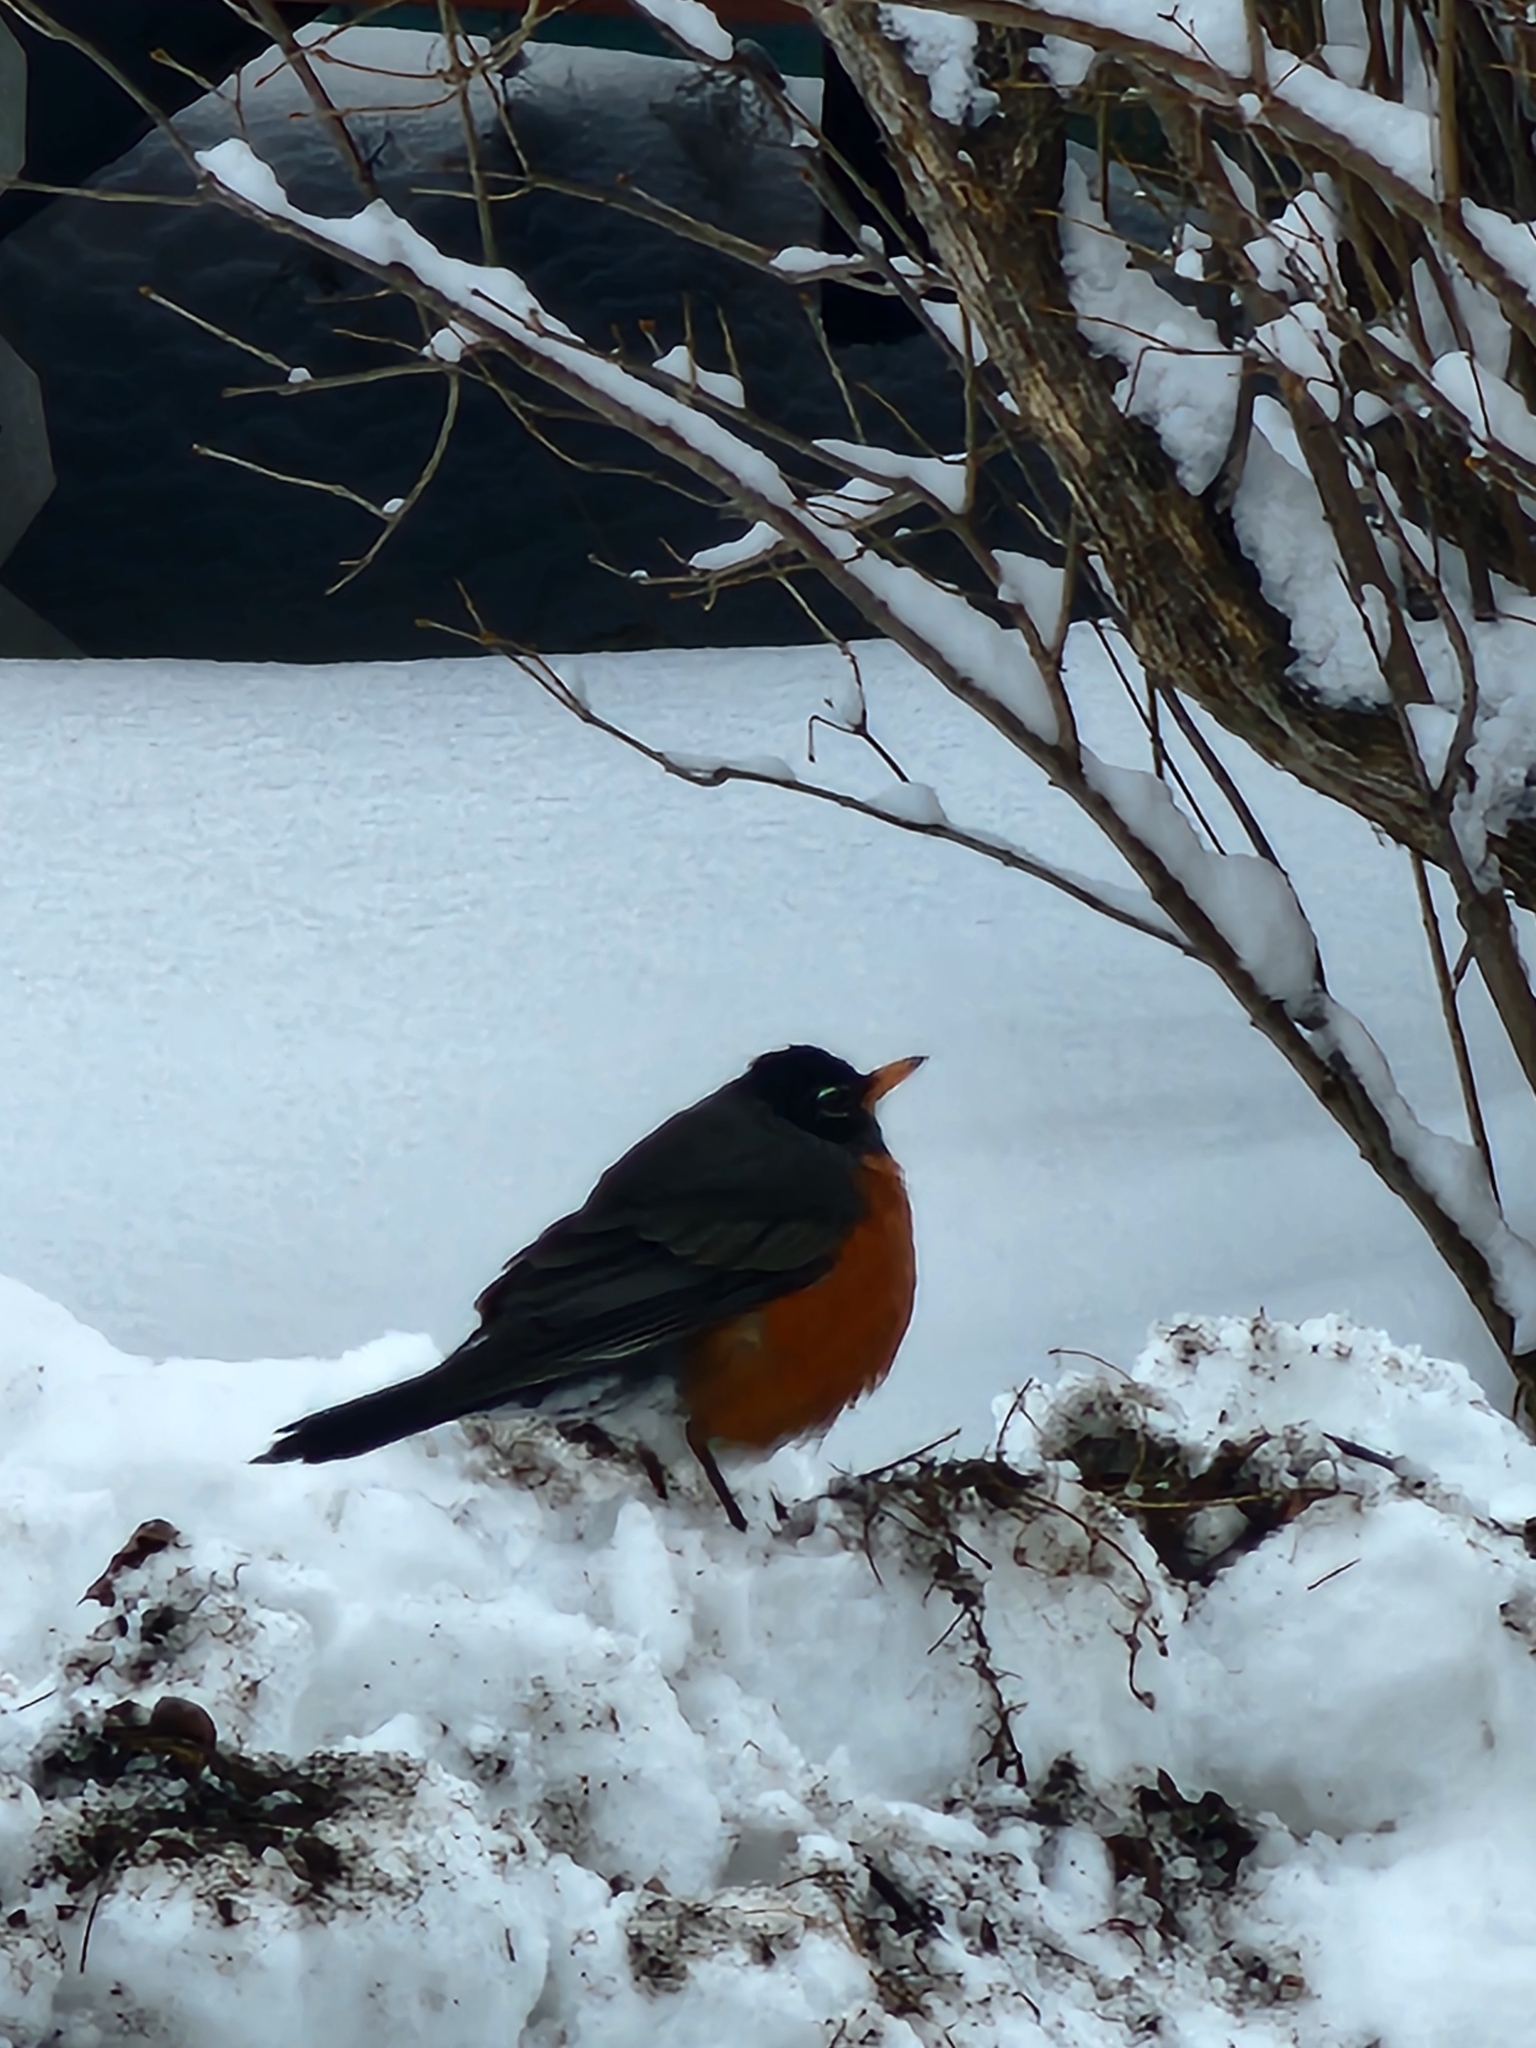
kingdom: Animalia
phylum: Chordata
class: Aves
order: Passeriformes
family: Turdidae
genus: Turdus
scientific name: Turdus migratorius
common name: American robin
